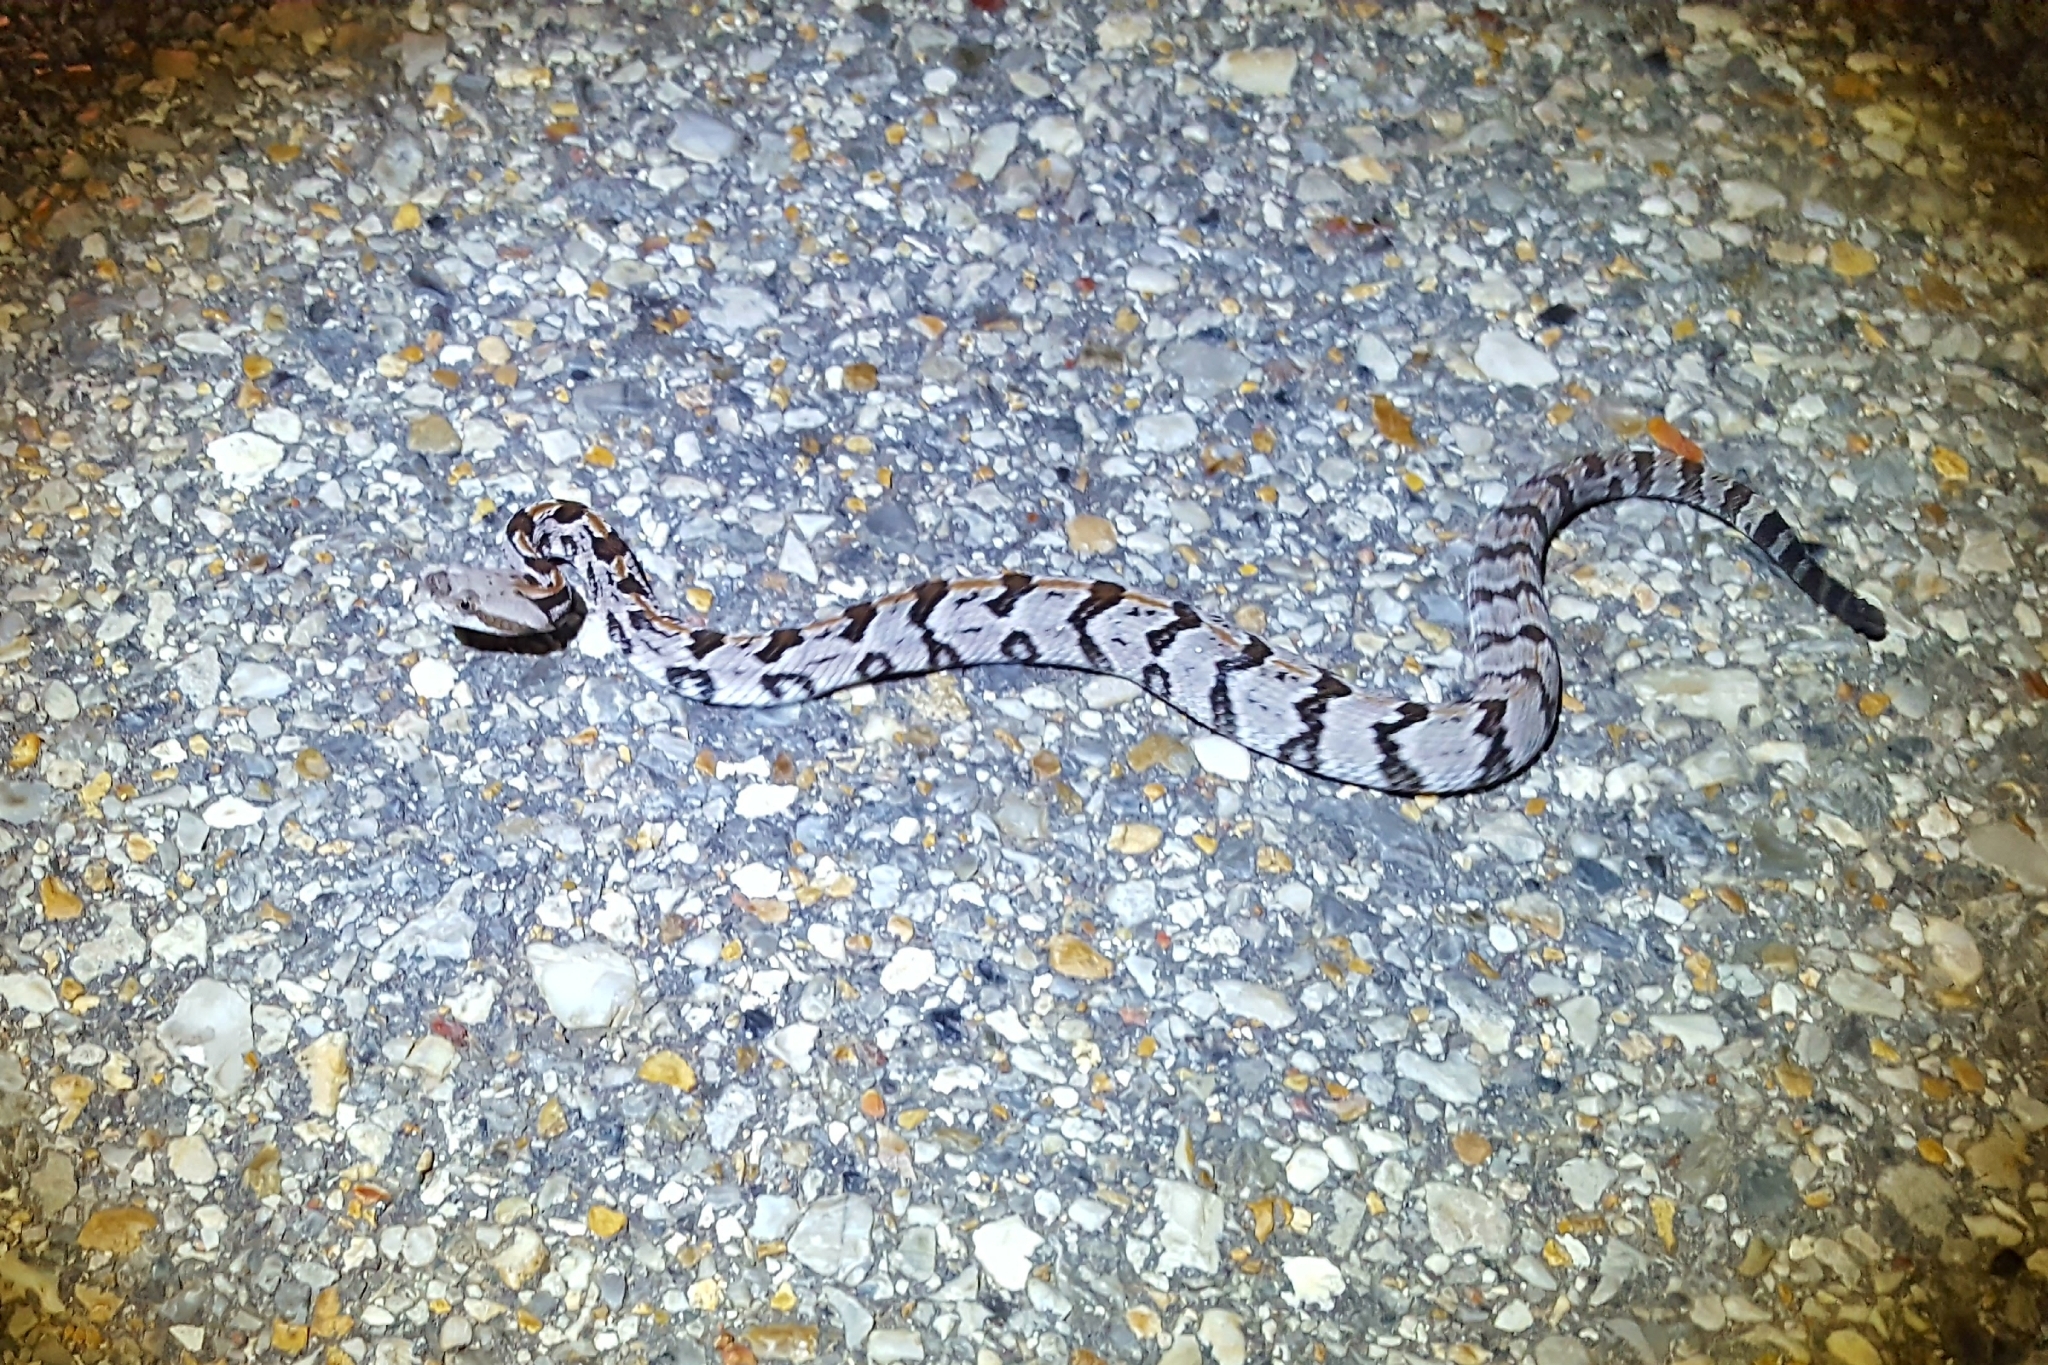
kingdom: Animalia
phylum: Chordata
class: Squamata
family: Viperidae
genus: Crotalus
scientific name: Crotalus horridus
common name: Timber rattlesnake
